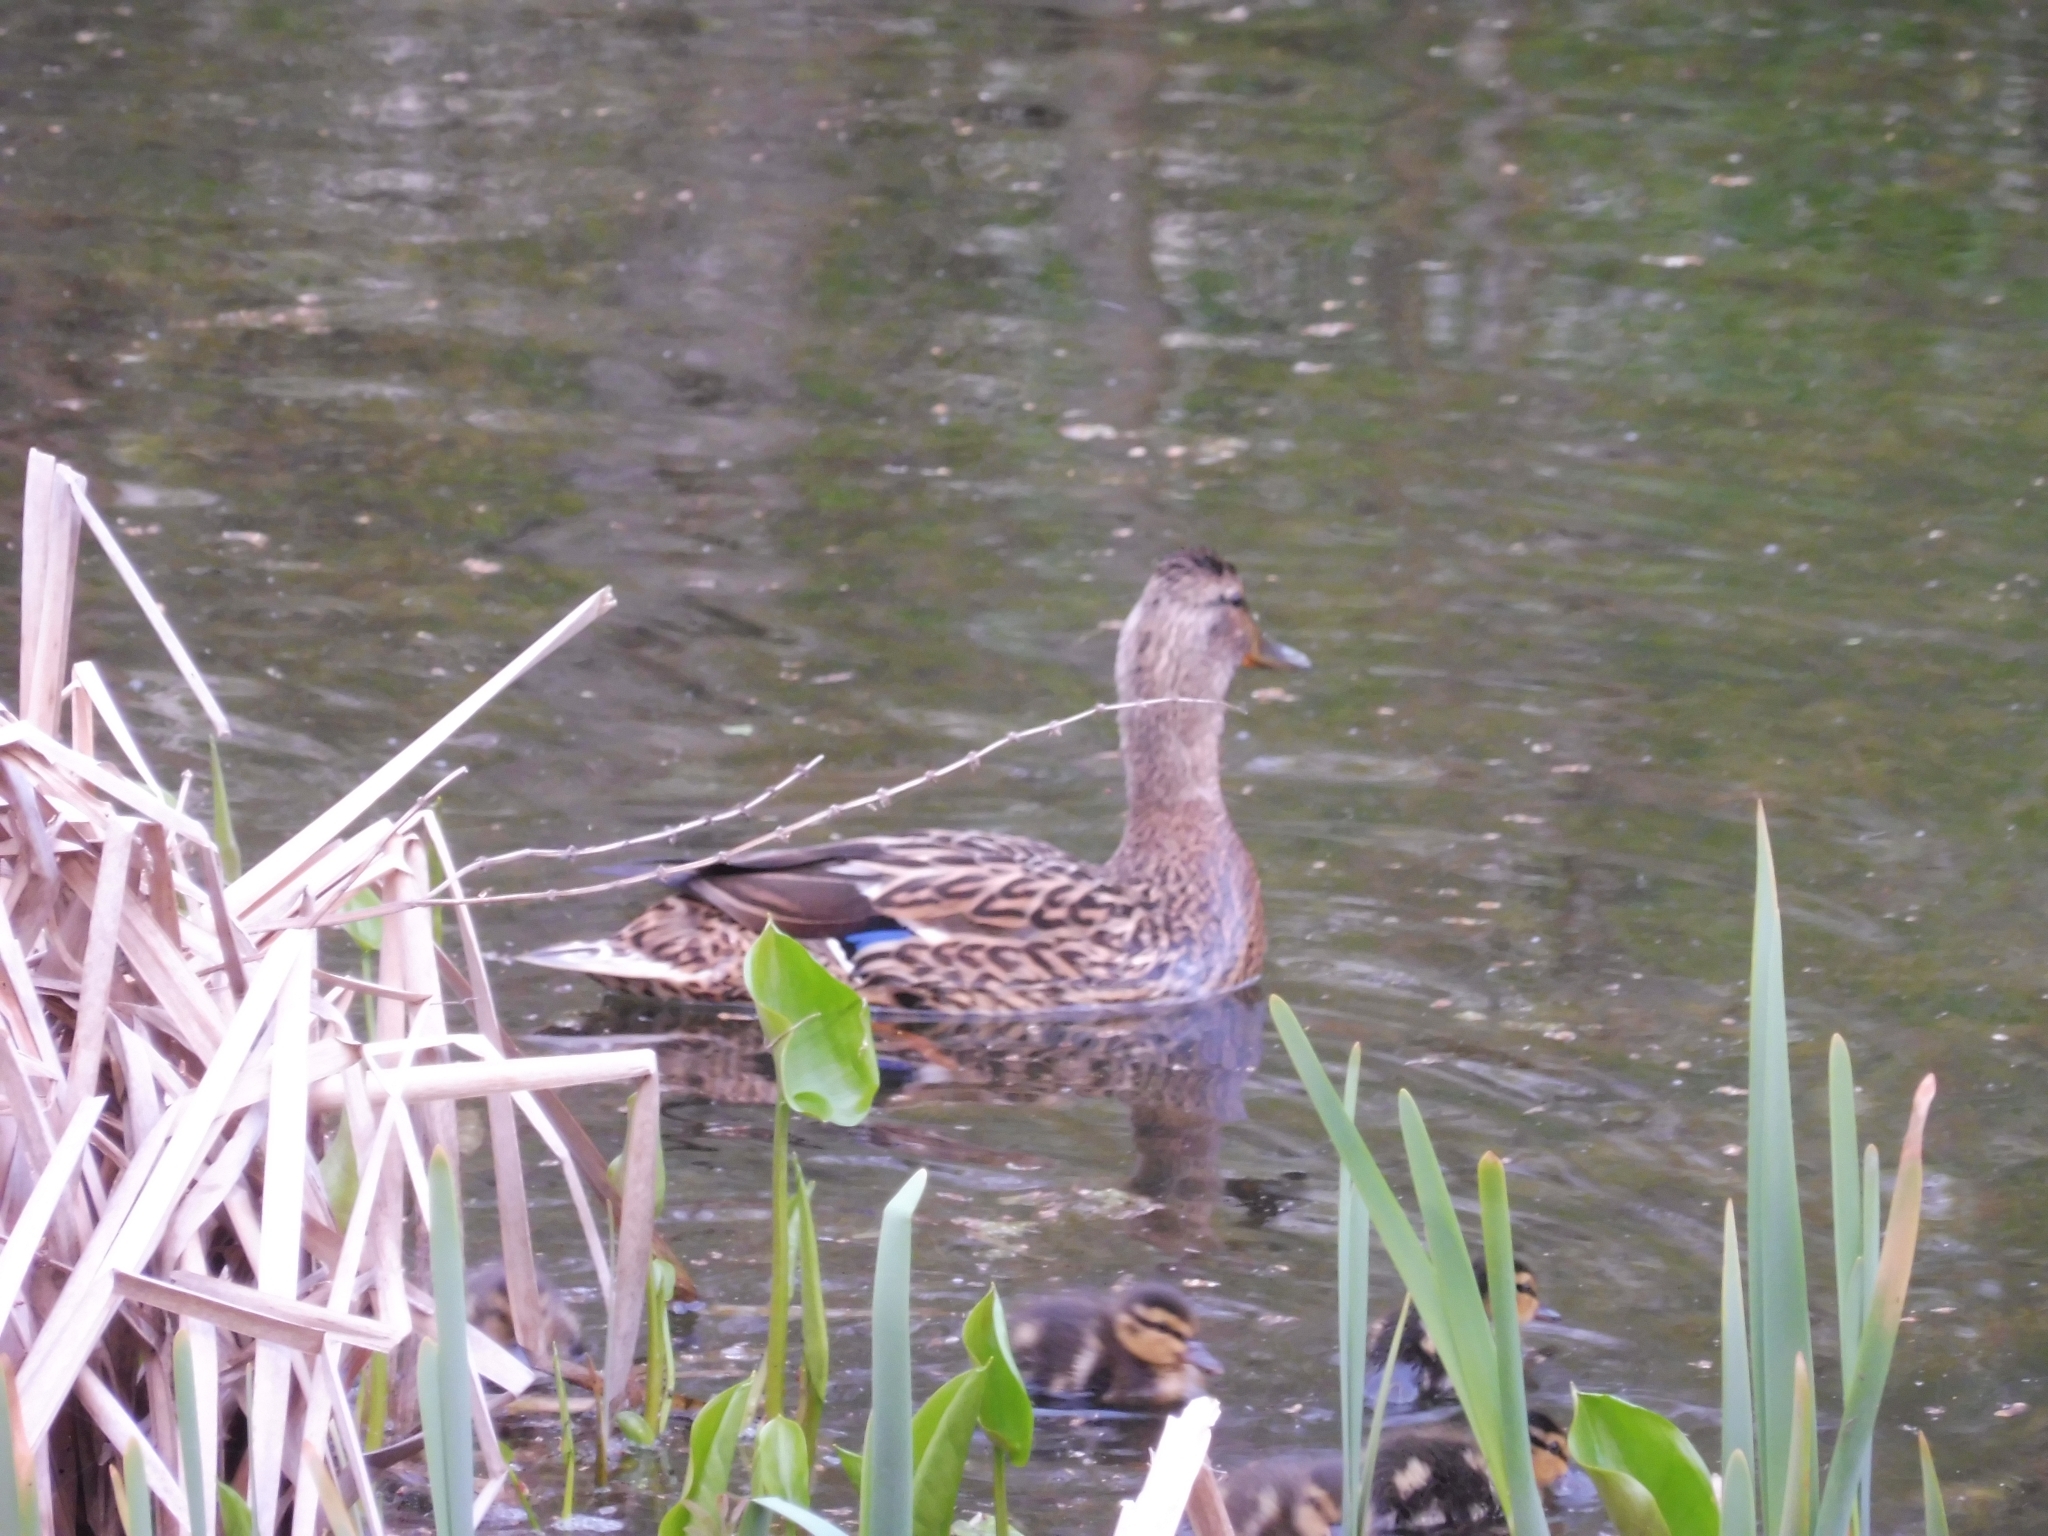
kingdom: Animalia
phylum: Chordata
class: Aves
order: Anseriformes
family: Anatidae
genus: Anas
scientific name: Anas platyrhynchos
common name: Mallard
